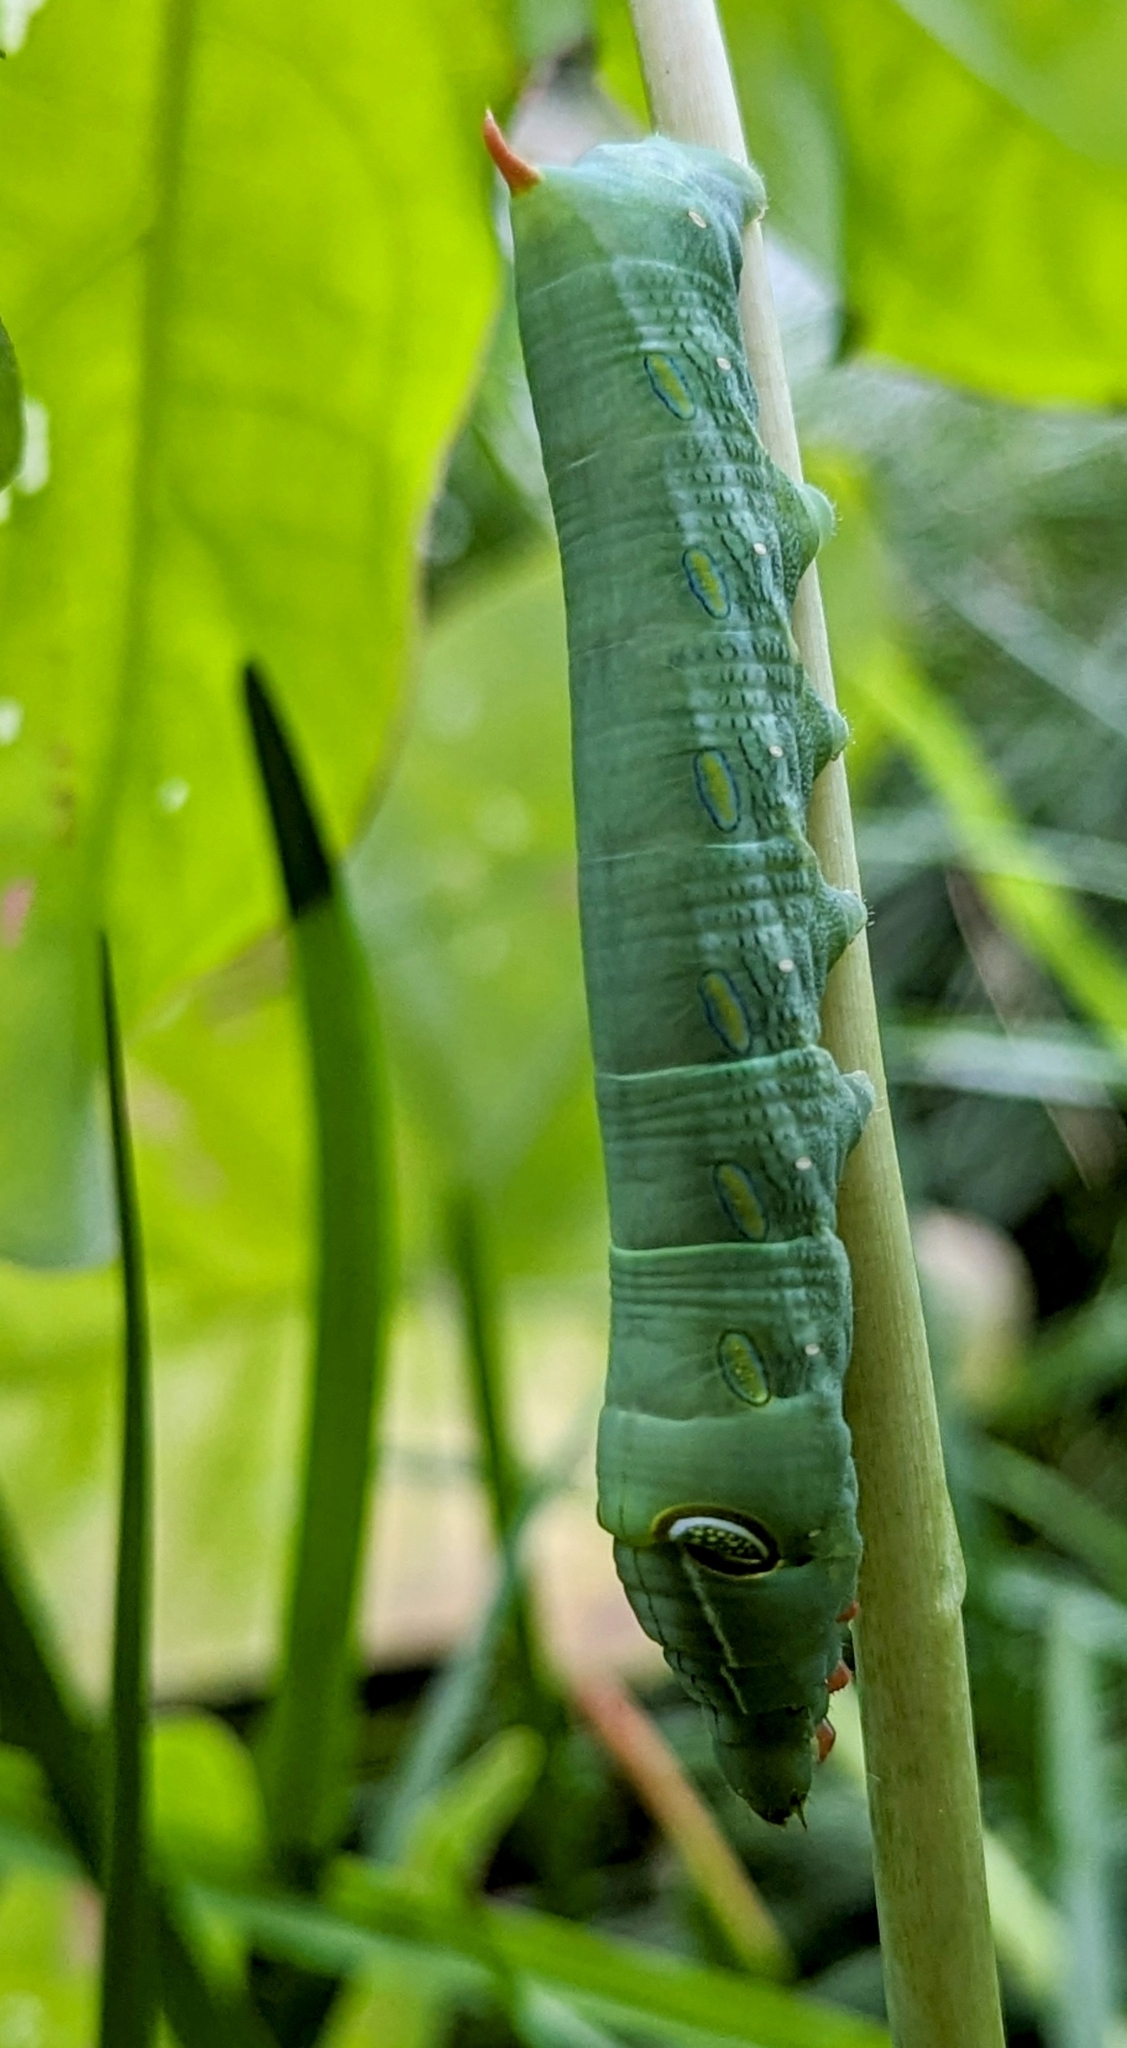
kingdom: Animalia
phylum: Arthropoda
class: Insecta
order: Lepidoptera
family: Sphingidae
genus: Pergesa
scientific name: Pergesa acteus
